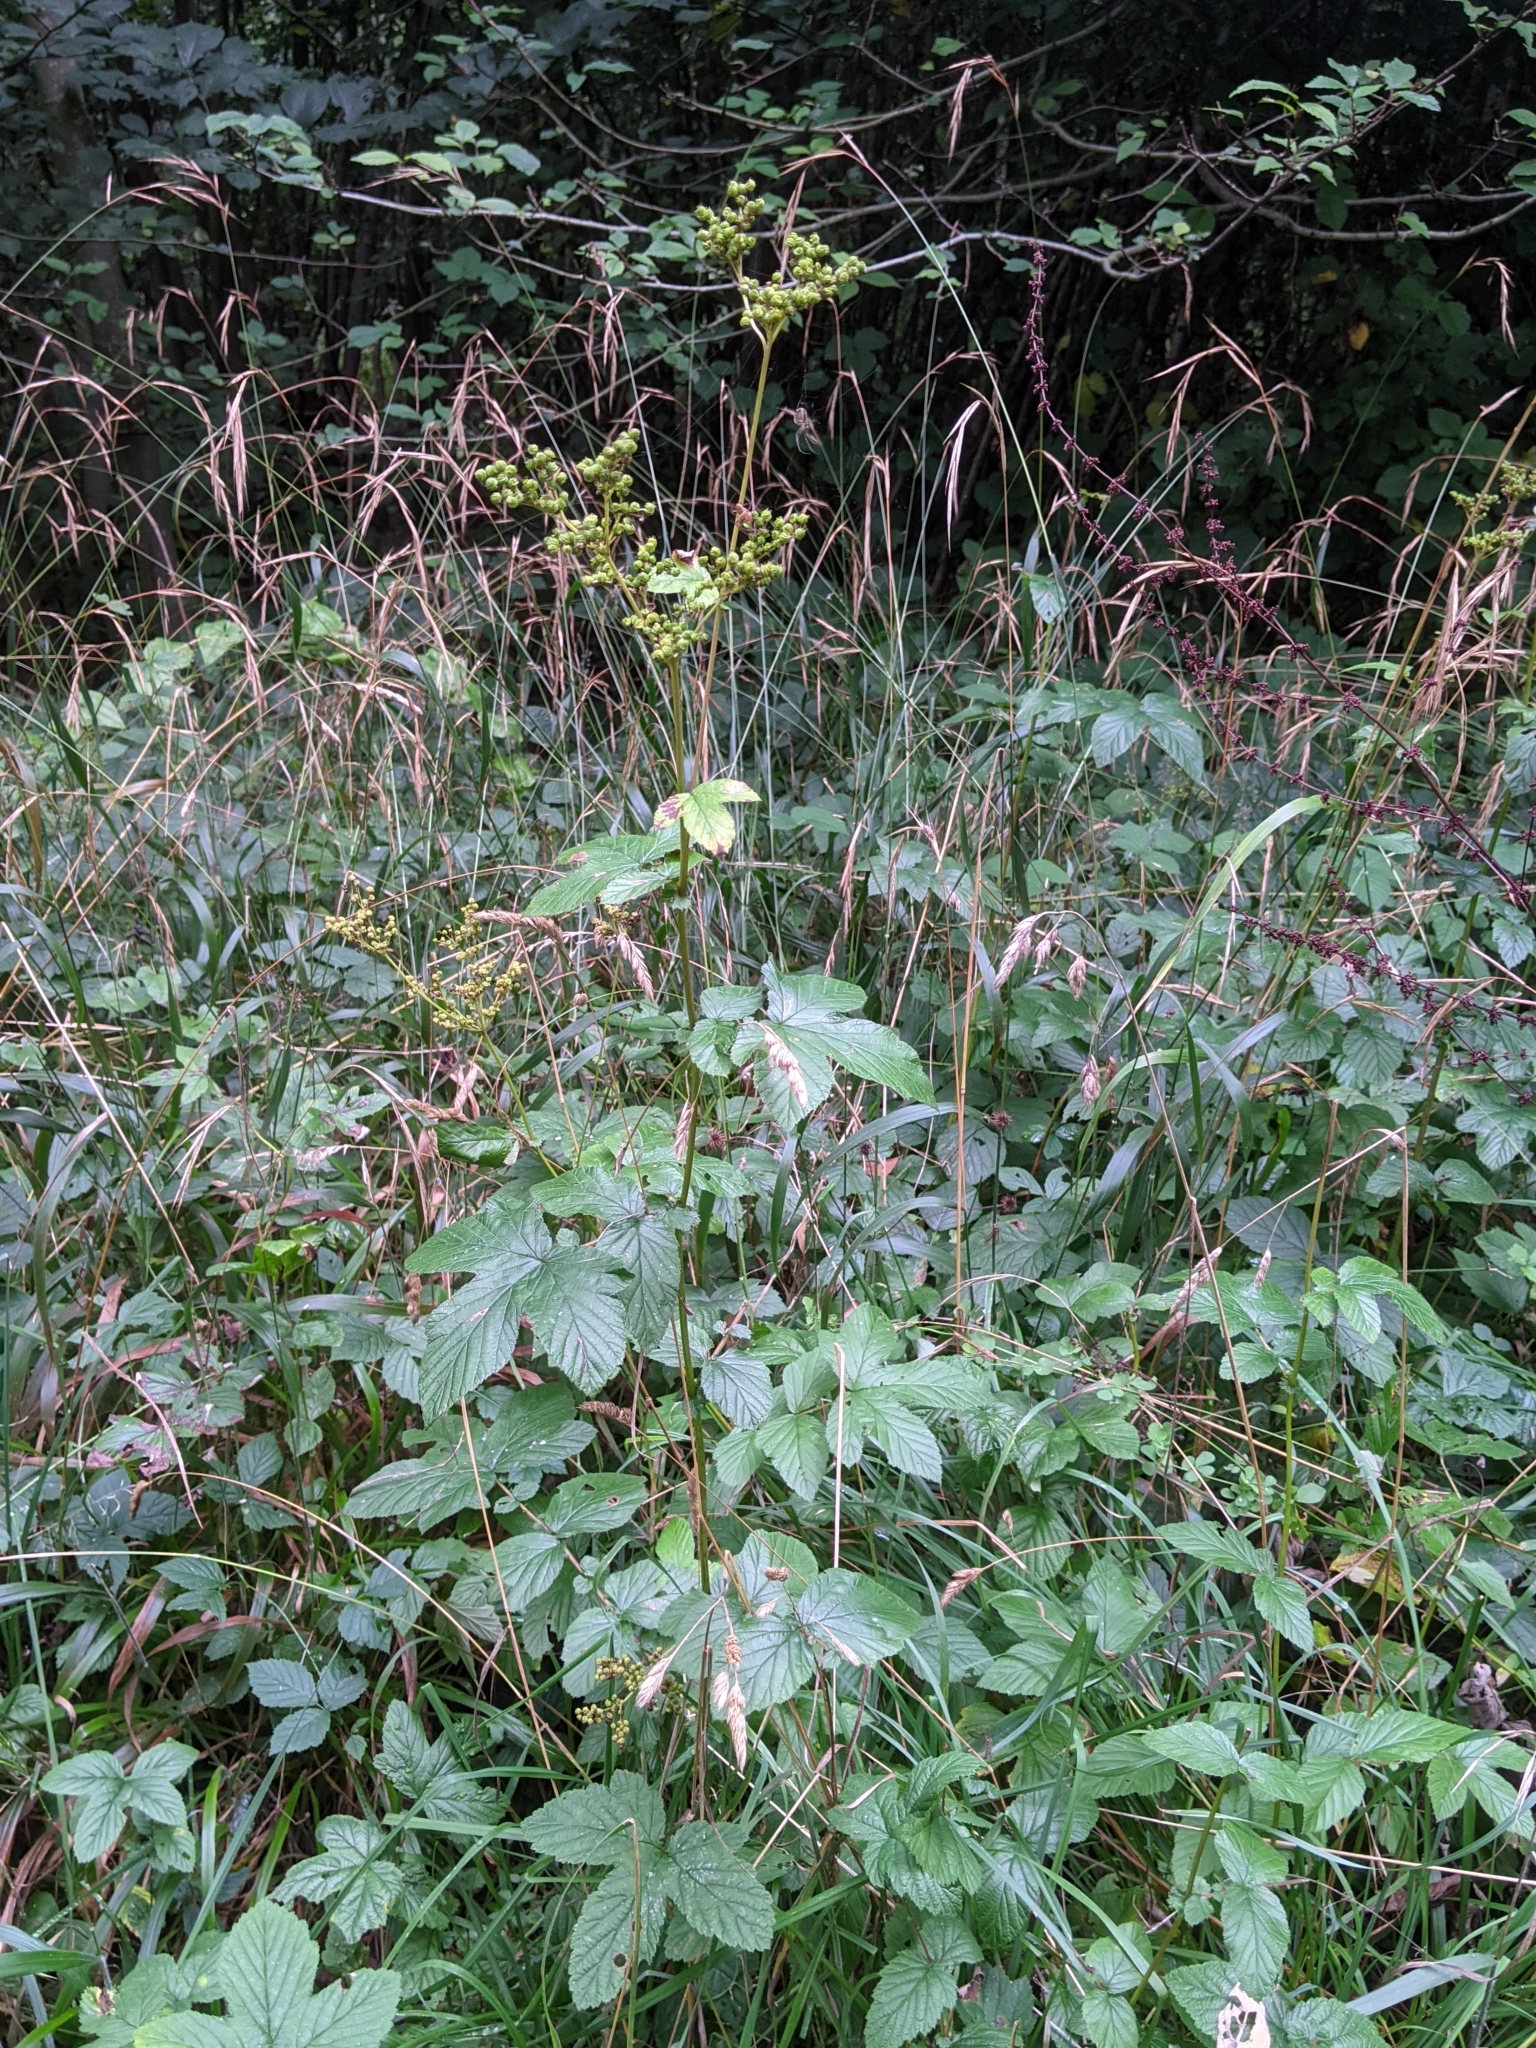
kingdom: Plantae
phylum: Tracheophyta
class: Magnoliopsida
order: Rosales
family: Rosaceae
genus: Filipendula
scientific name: Filipendula ulmaria
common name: Meadowsweet
